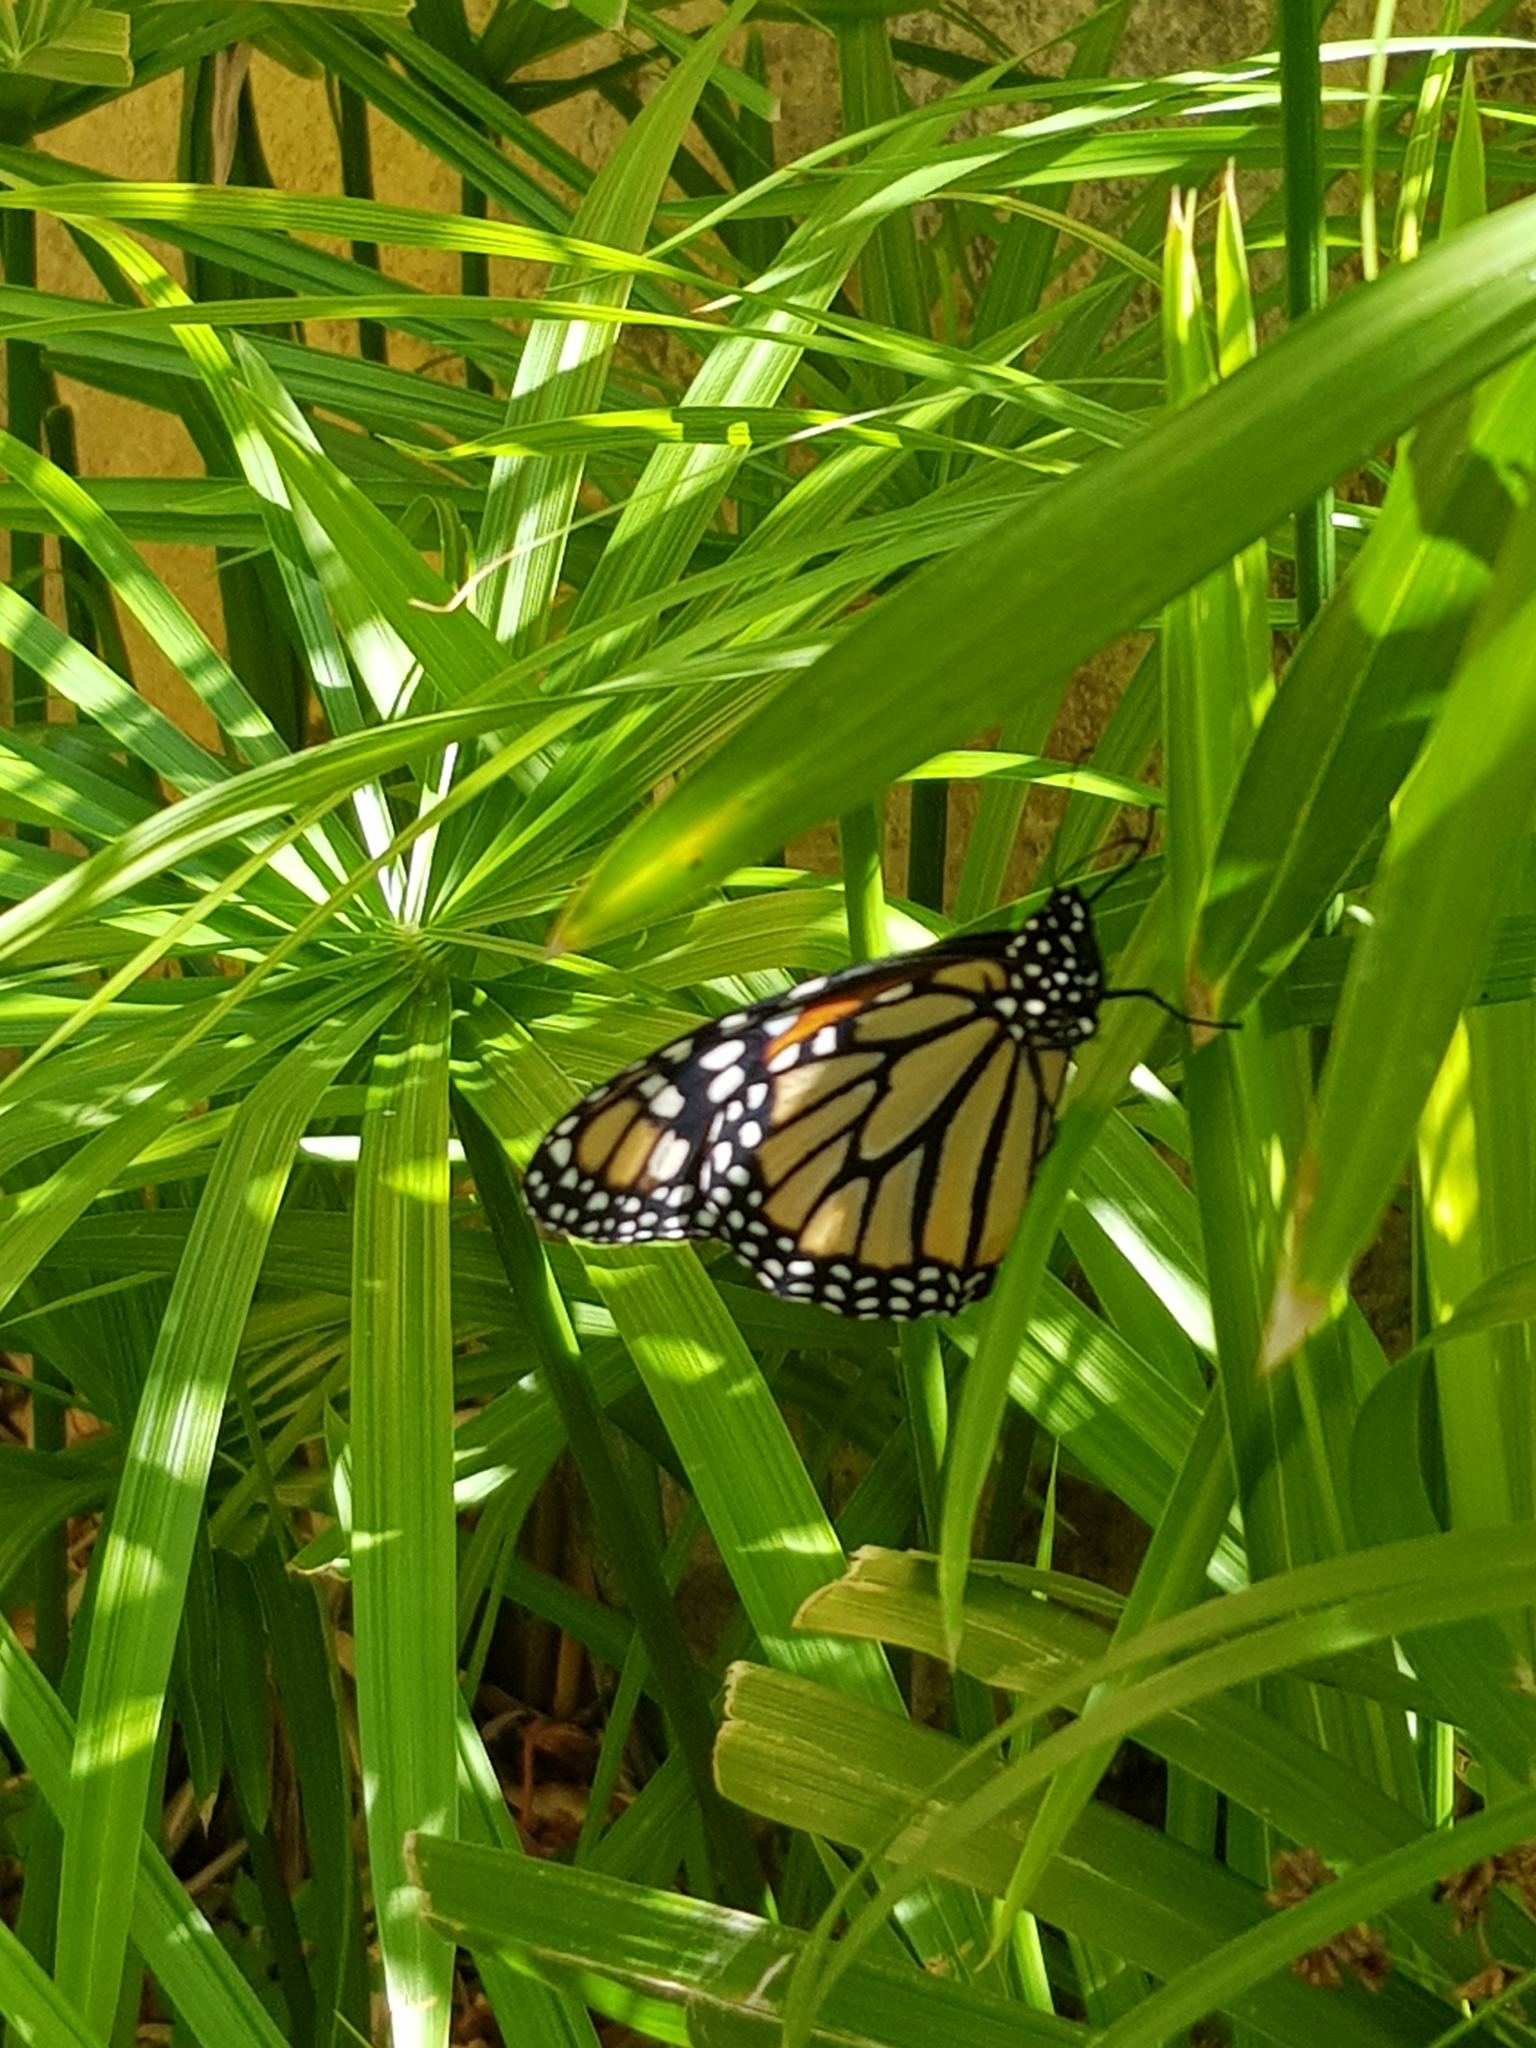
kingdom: Animalia
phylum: Arthropoda
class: Insecta
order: Lepidoptera
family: Nymphalidae
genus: Danaus
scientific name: Danaus plexippus
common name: Monarch
